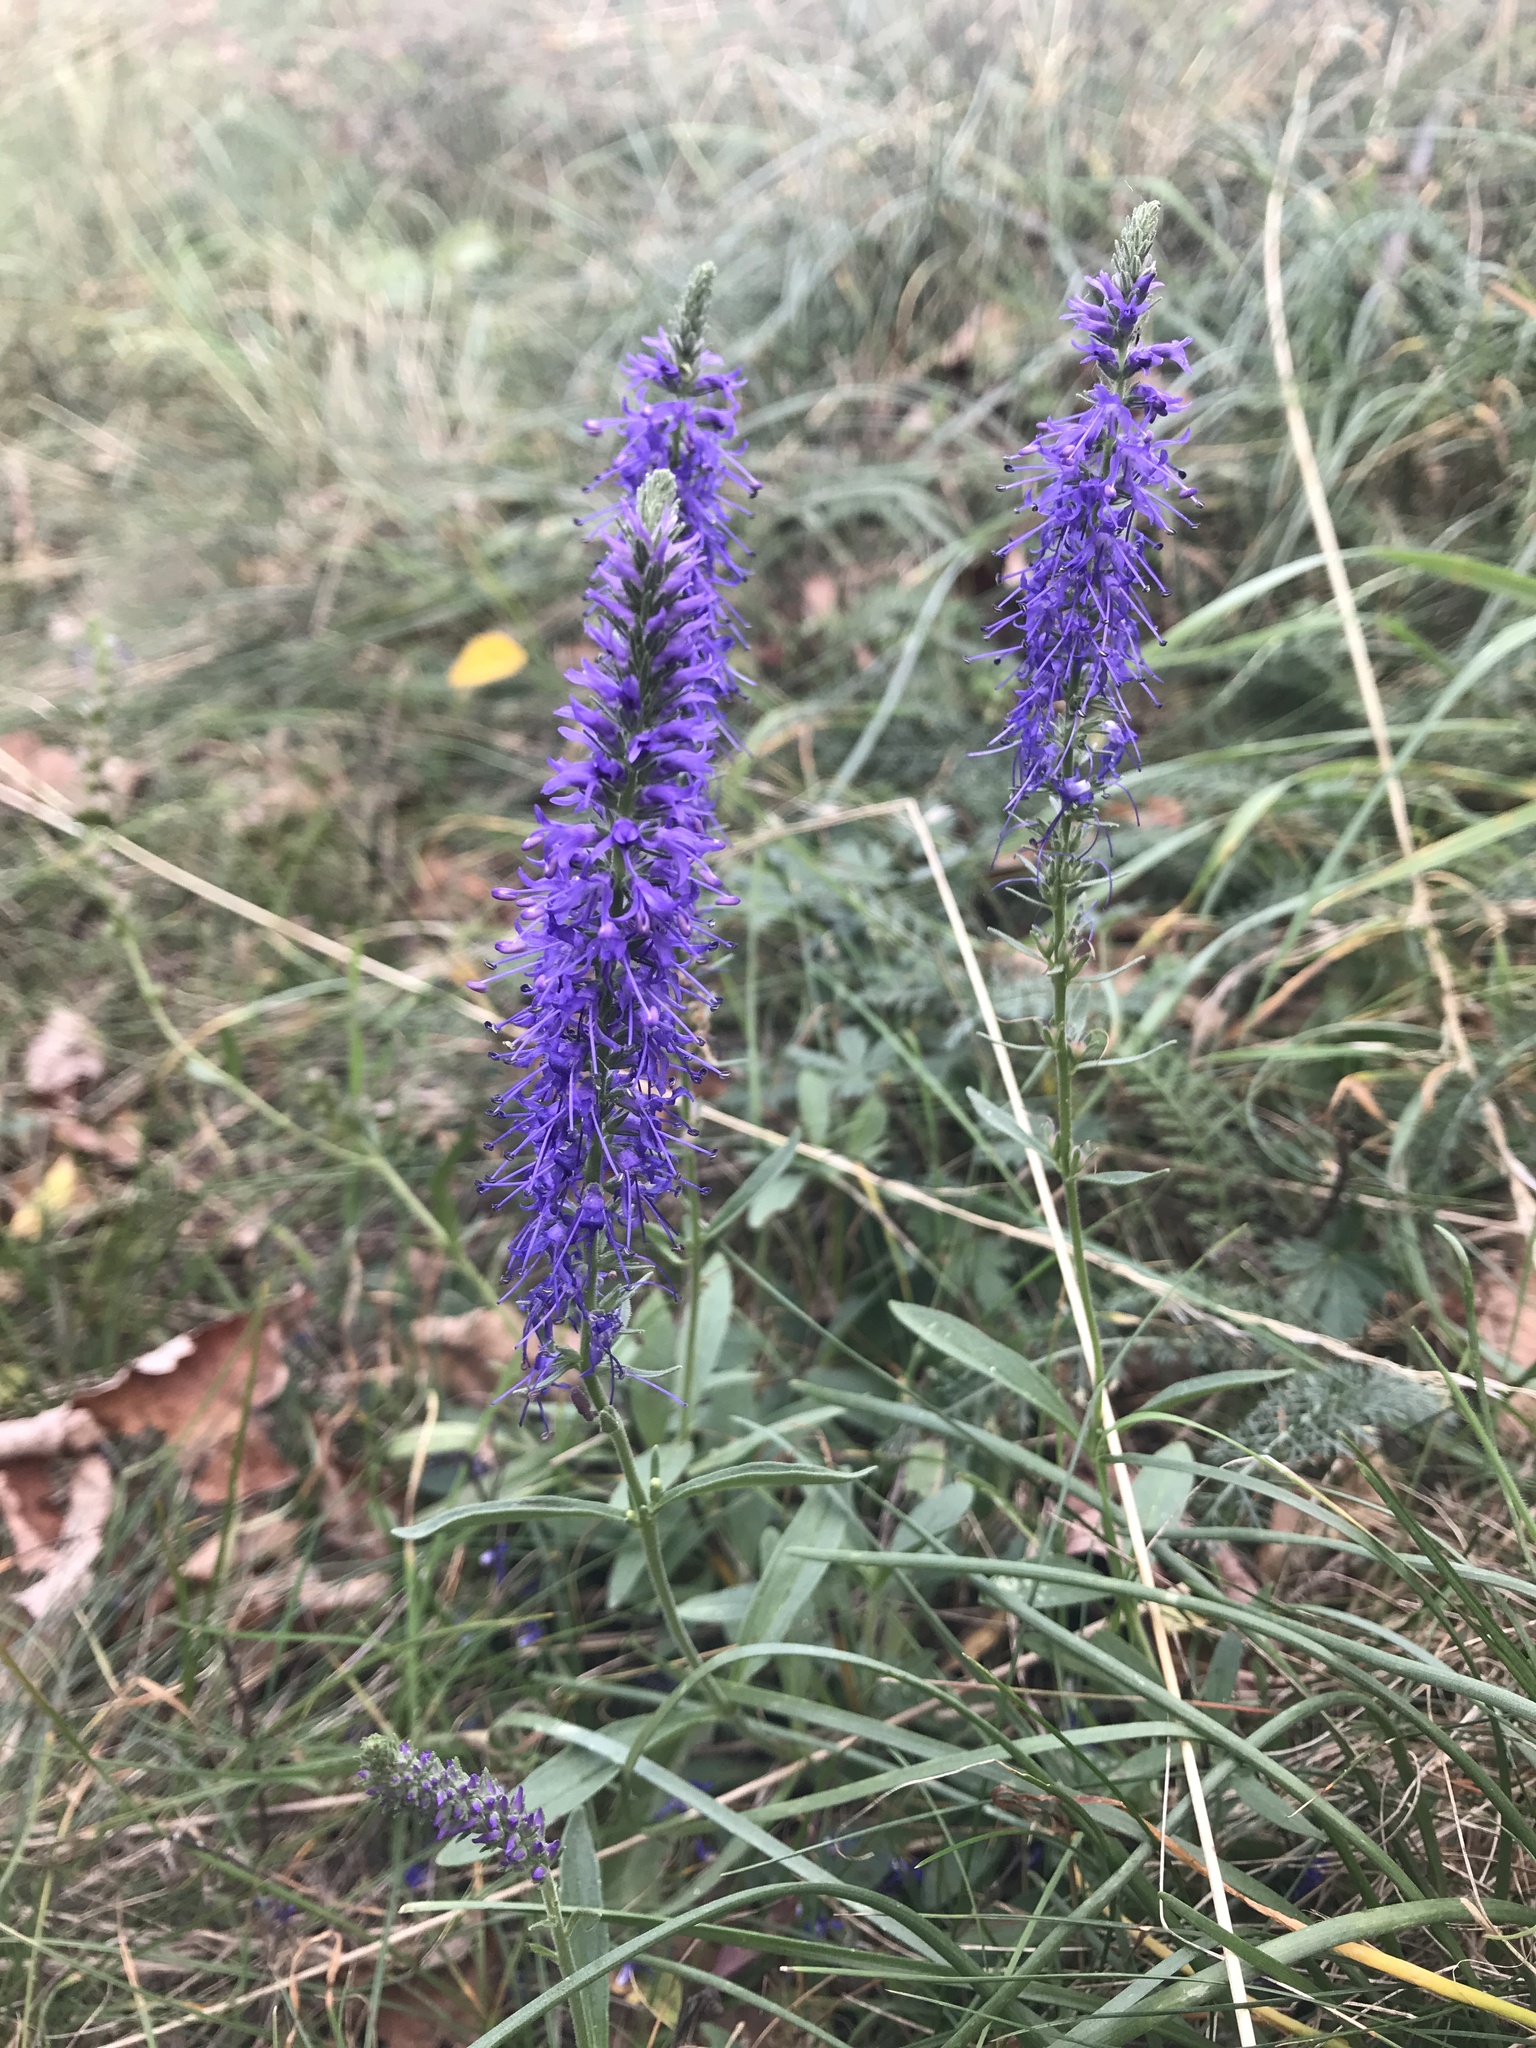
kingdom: Plantae
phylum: Tracheophyta
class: Magnoliopsida
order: Lamiales
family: Plantaginaceae
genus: Veronica
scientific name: Veronica spicata
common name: Spiked speedwell
